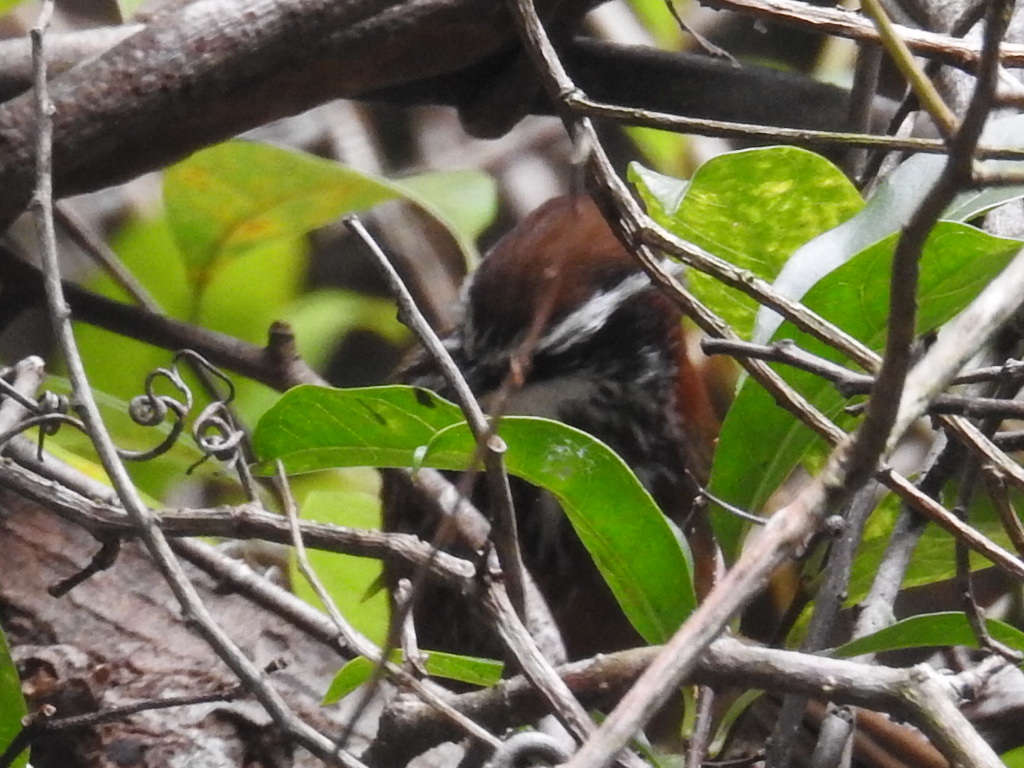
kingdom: Animalia
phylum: Chordata
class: Aves
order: Passeriformes
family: Timaliidae
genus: Pomatorhinus
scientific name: Pomatorhinus ruficollis
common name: Streak-breasted scimitar babbler
